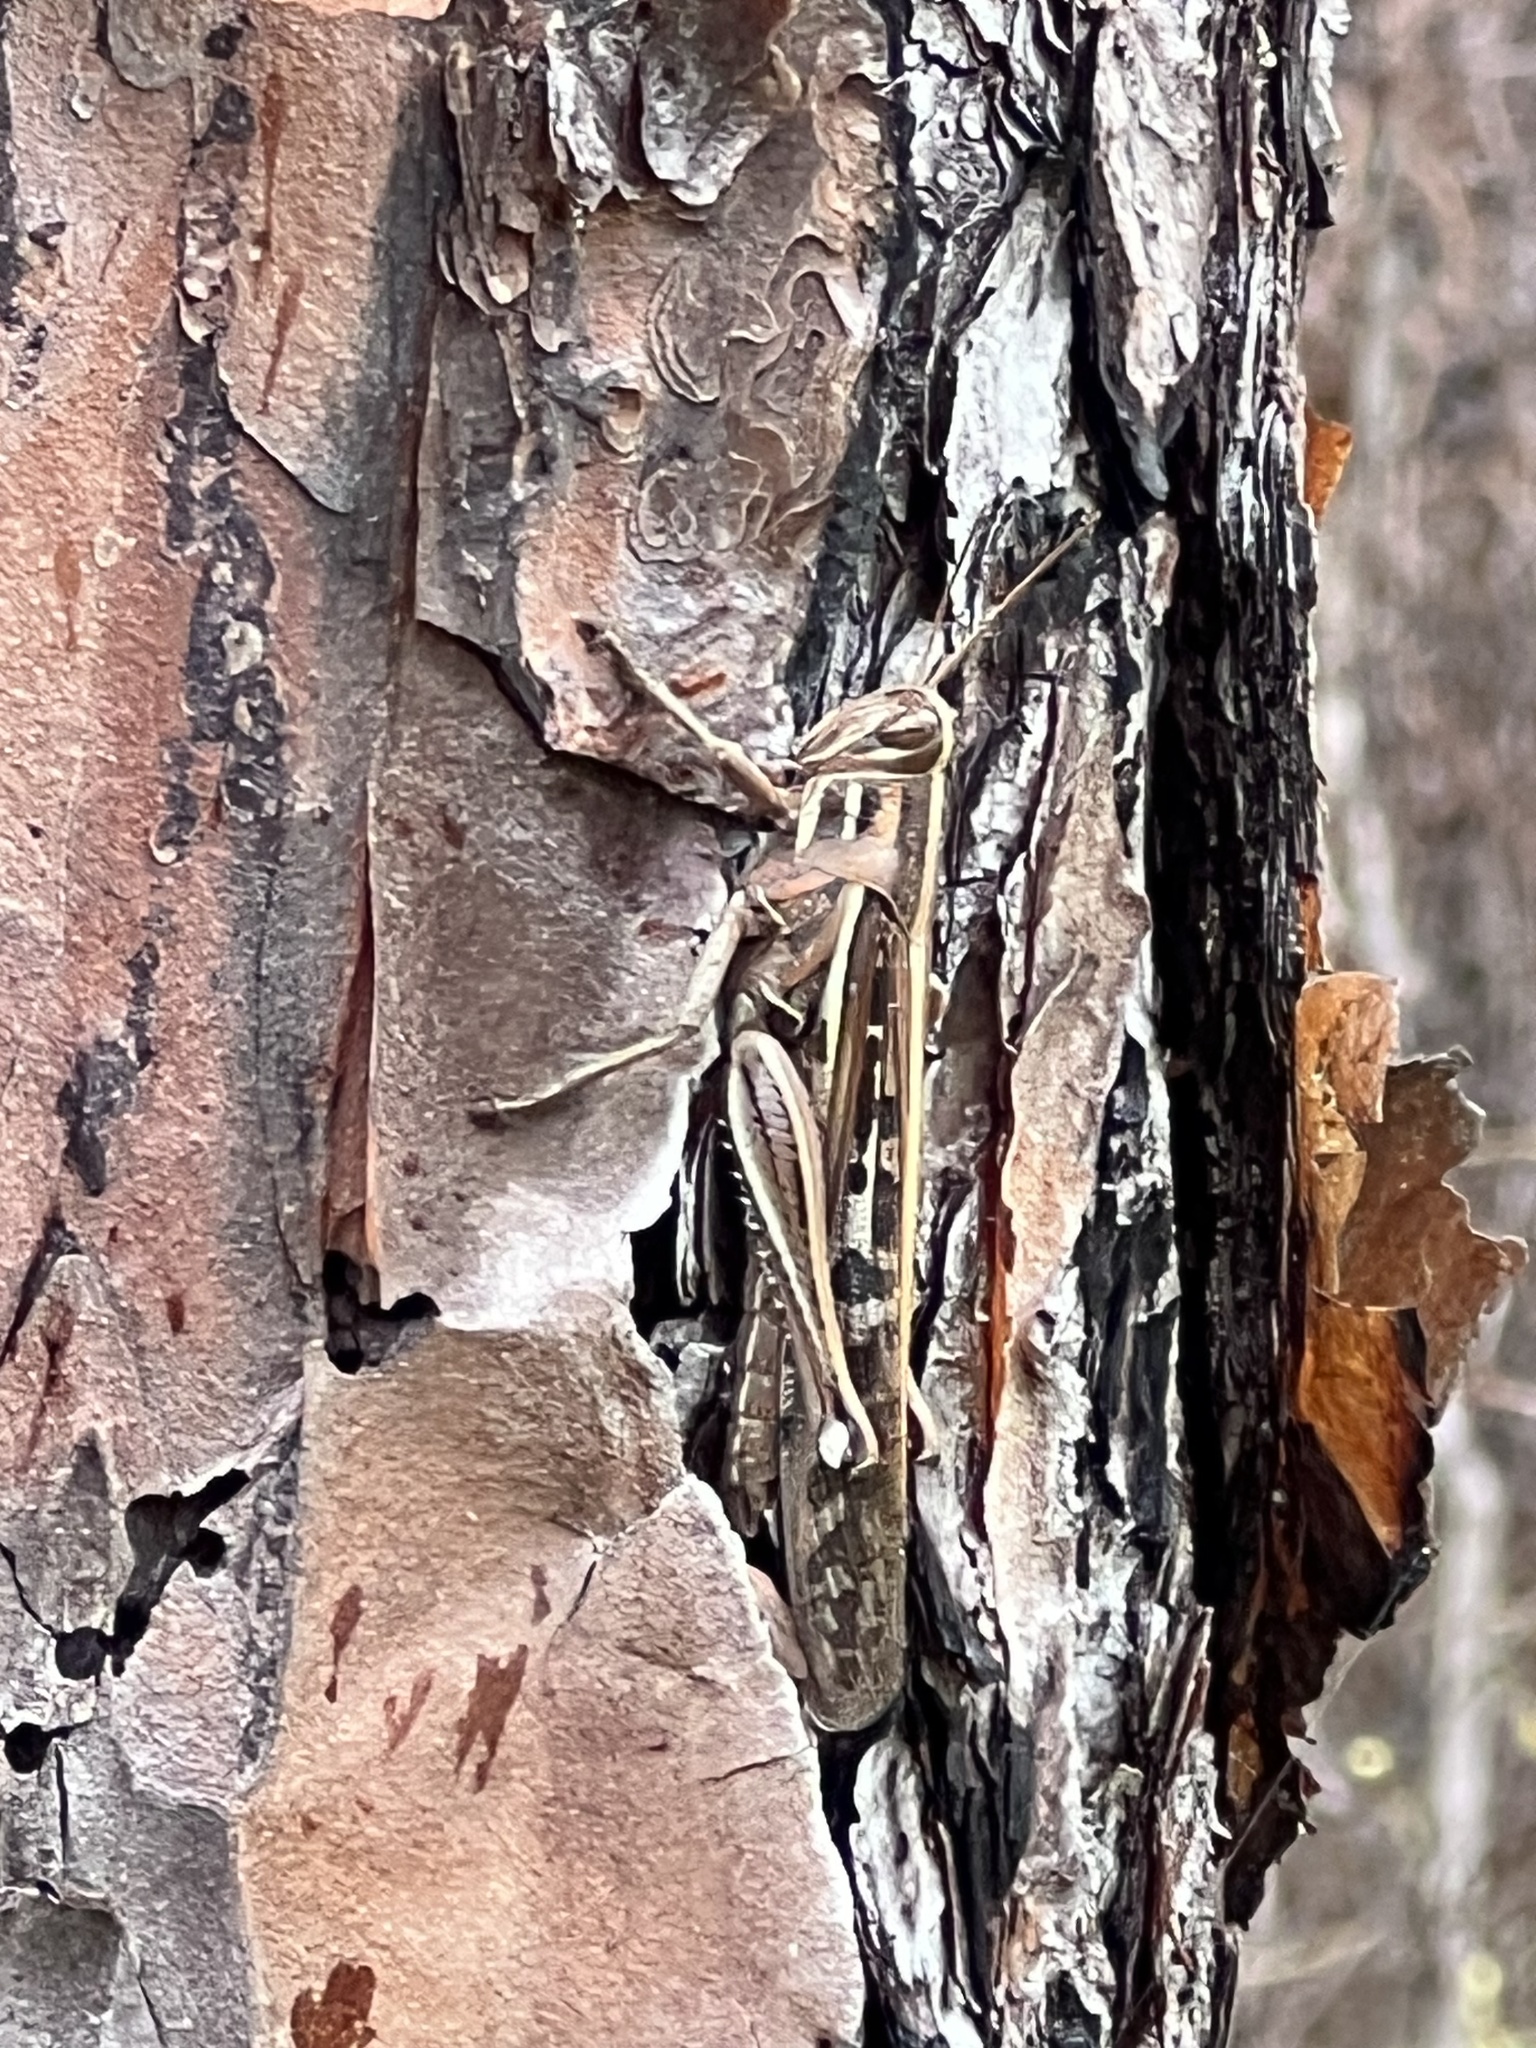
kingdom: Animalia
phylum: Arthropoda
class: Insecta
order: Orthoptera
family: Acrididae
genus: Schistocerca
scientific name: Schistocerca americana
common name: American bird locust
